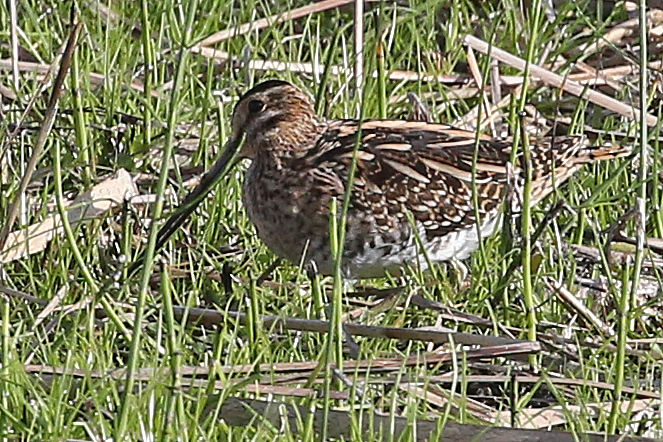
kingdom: Animalia
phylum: Chordata
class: Aves
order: Charadriiformes
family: Scolopacidae
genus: Gallinago
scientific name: Gallinago gallinago
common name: Common snipe
